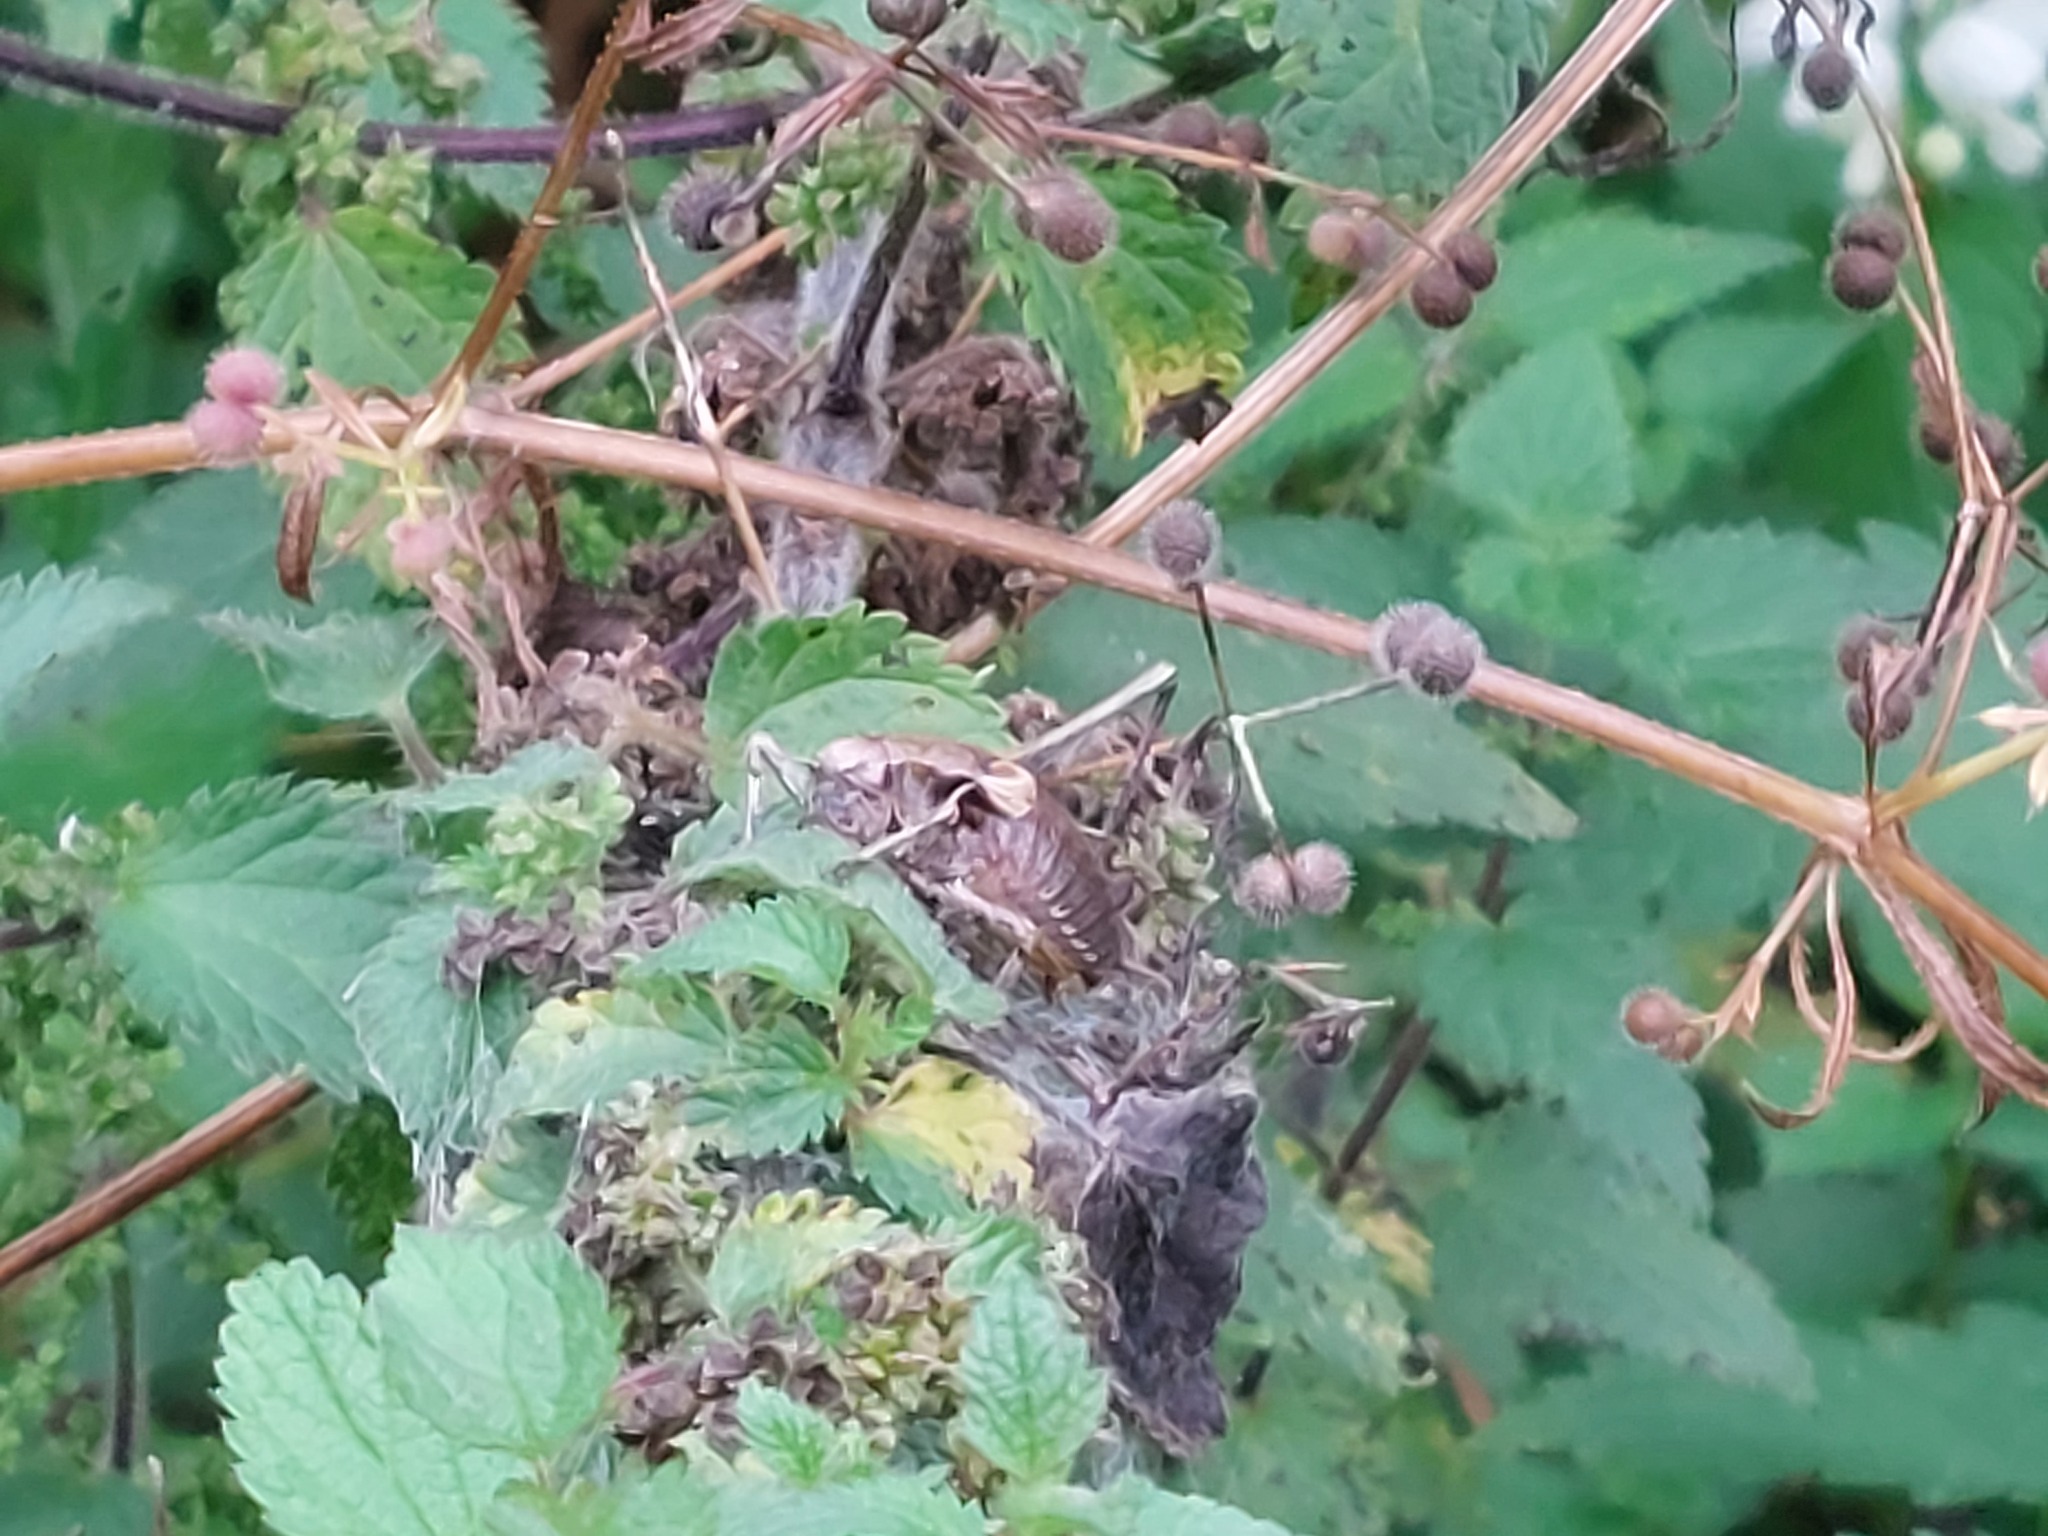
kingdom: Animalia
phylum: Arthropoda
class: Insecta
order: Orthoptera
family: Tettigoniidae
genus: Pholidoptera
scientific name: Pholidoptera griseoaptera
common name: Dark bush-cricket
